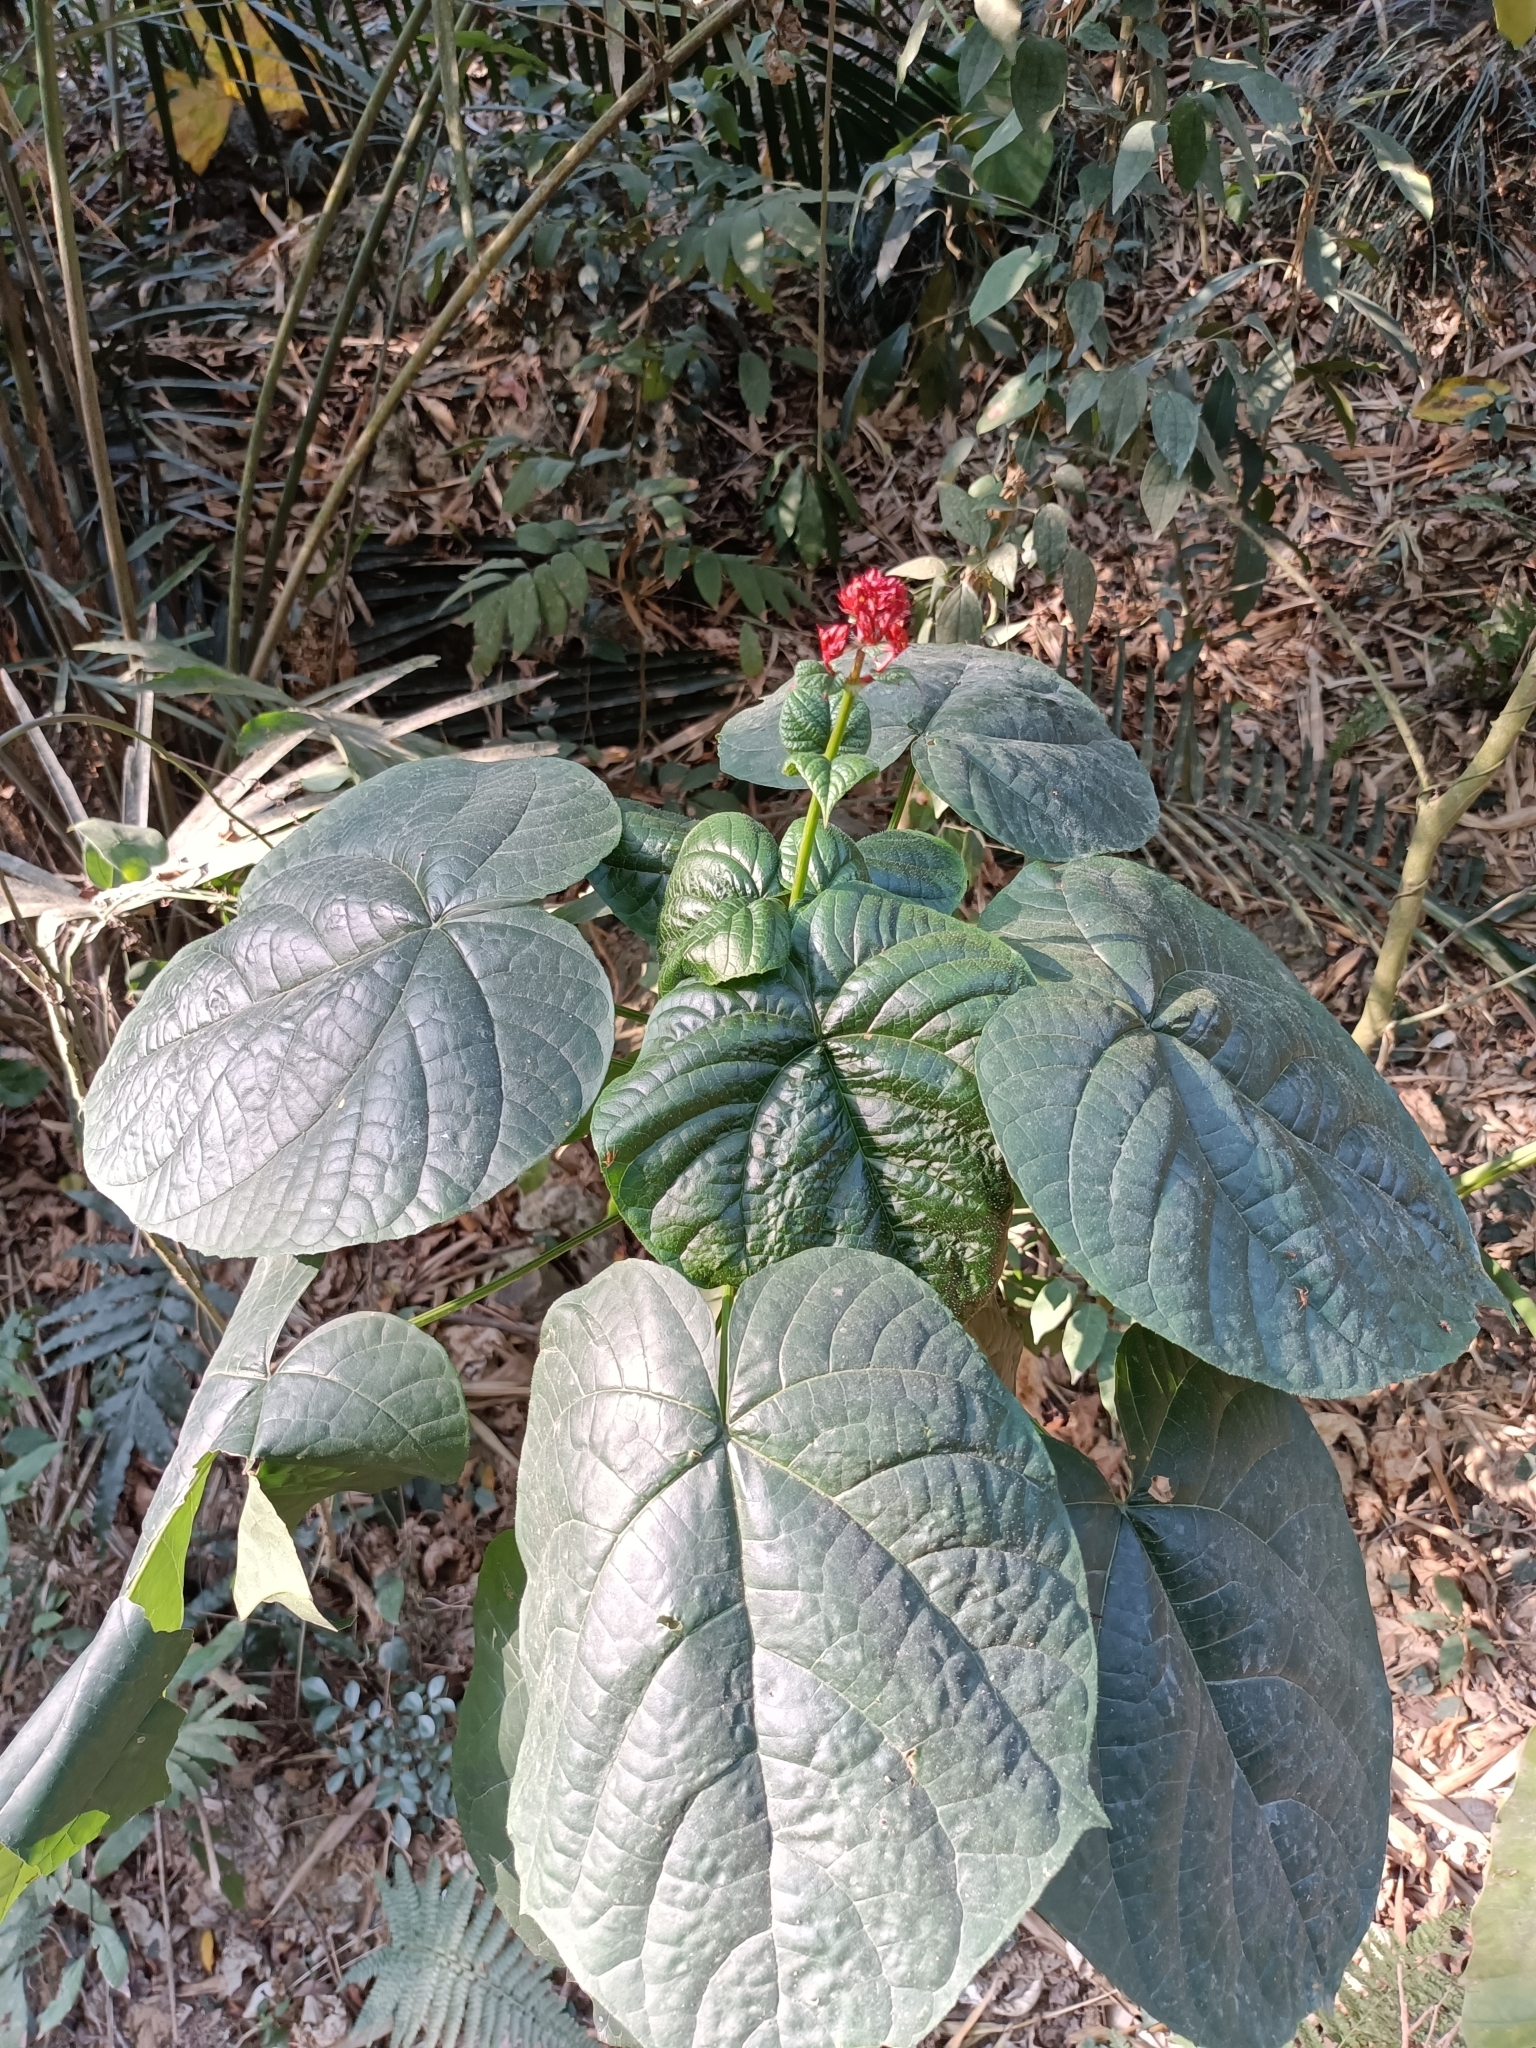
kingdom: Plantae
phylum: Tracheophyta
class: Magnoliopsida
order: Lamiales
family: Lamiaceae
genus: Clerodendrum
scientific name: Clerodendrum japonicum
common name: Japanese glorybower
